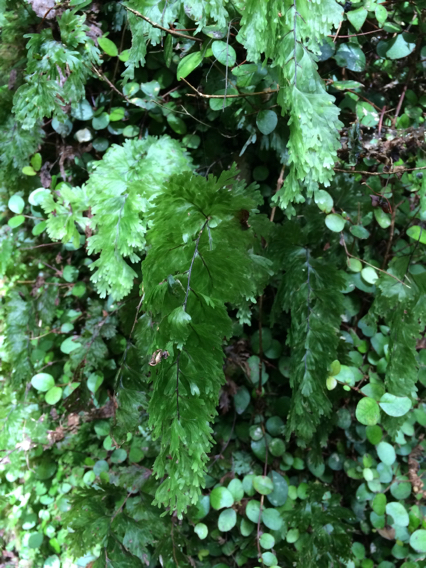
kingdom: Plantae
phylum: Tracheophyta
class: Polypodiopsida
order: Hymenophyllales
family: Hymenophyllaceae
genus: Hymenophyllum
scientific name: Hymenophyllum flabellatum
